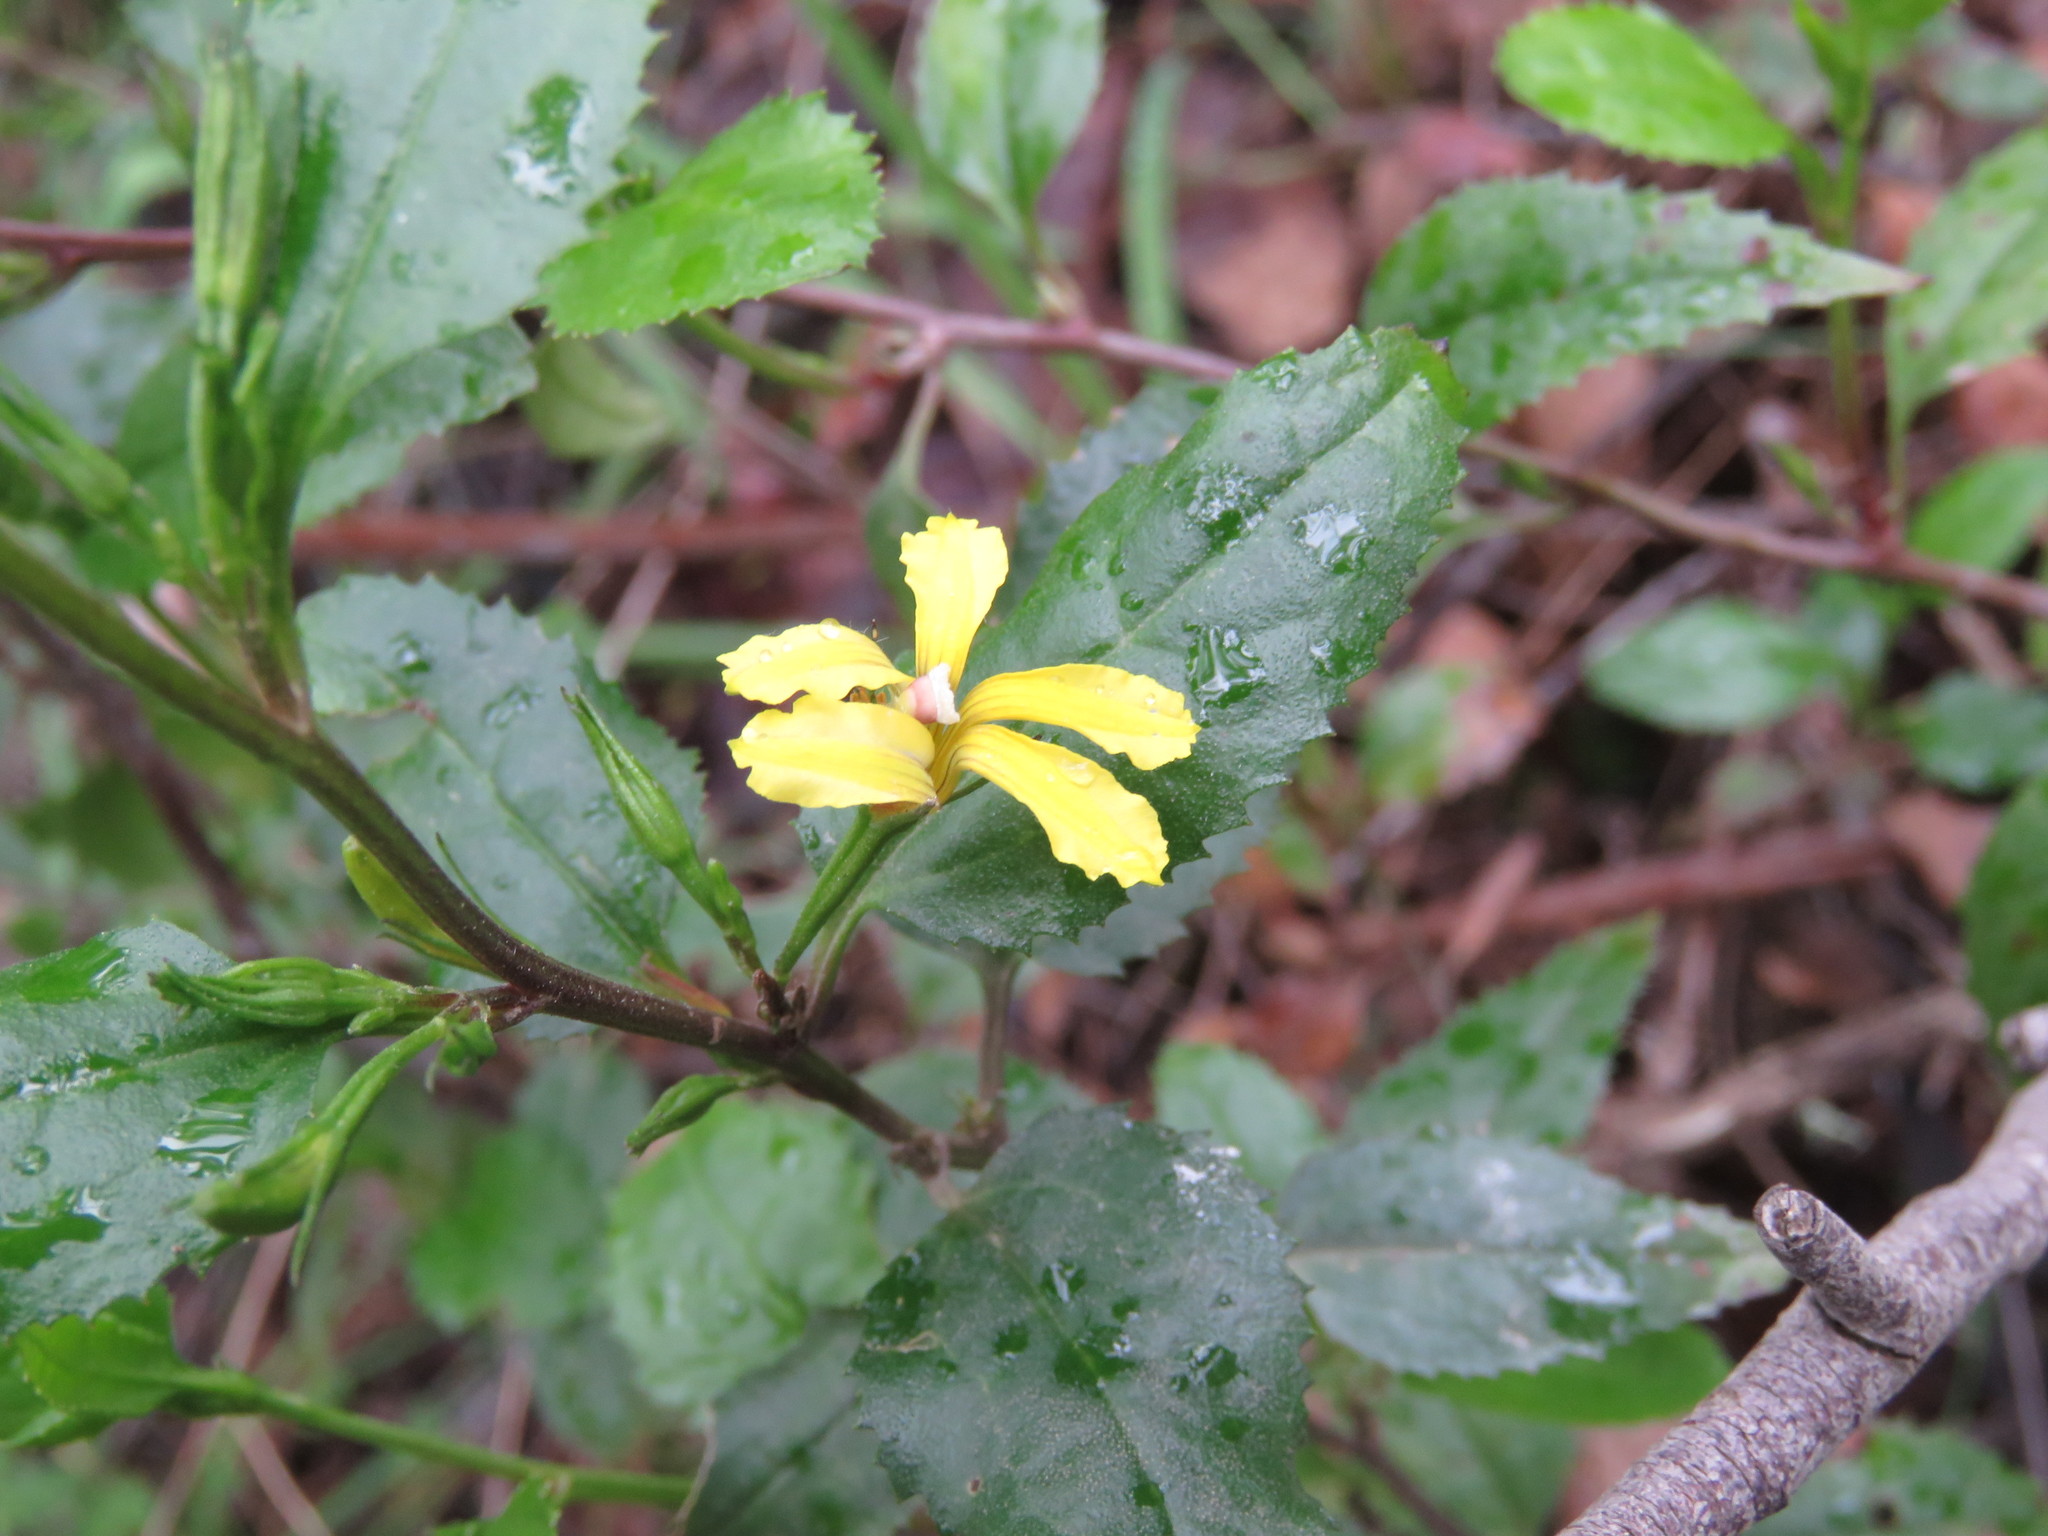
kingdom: Plantae
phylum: Tracheophyta
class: Magnoliopsida
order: Asterales
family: Goodeniaceae
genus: Goodenia
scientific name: Goodenia ovata
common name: Hop goodenia
